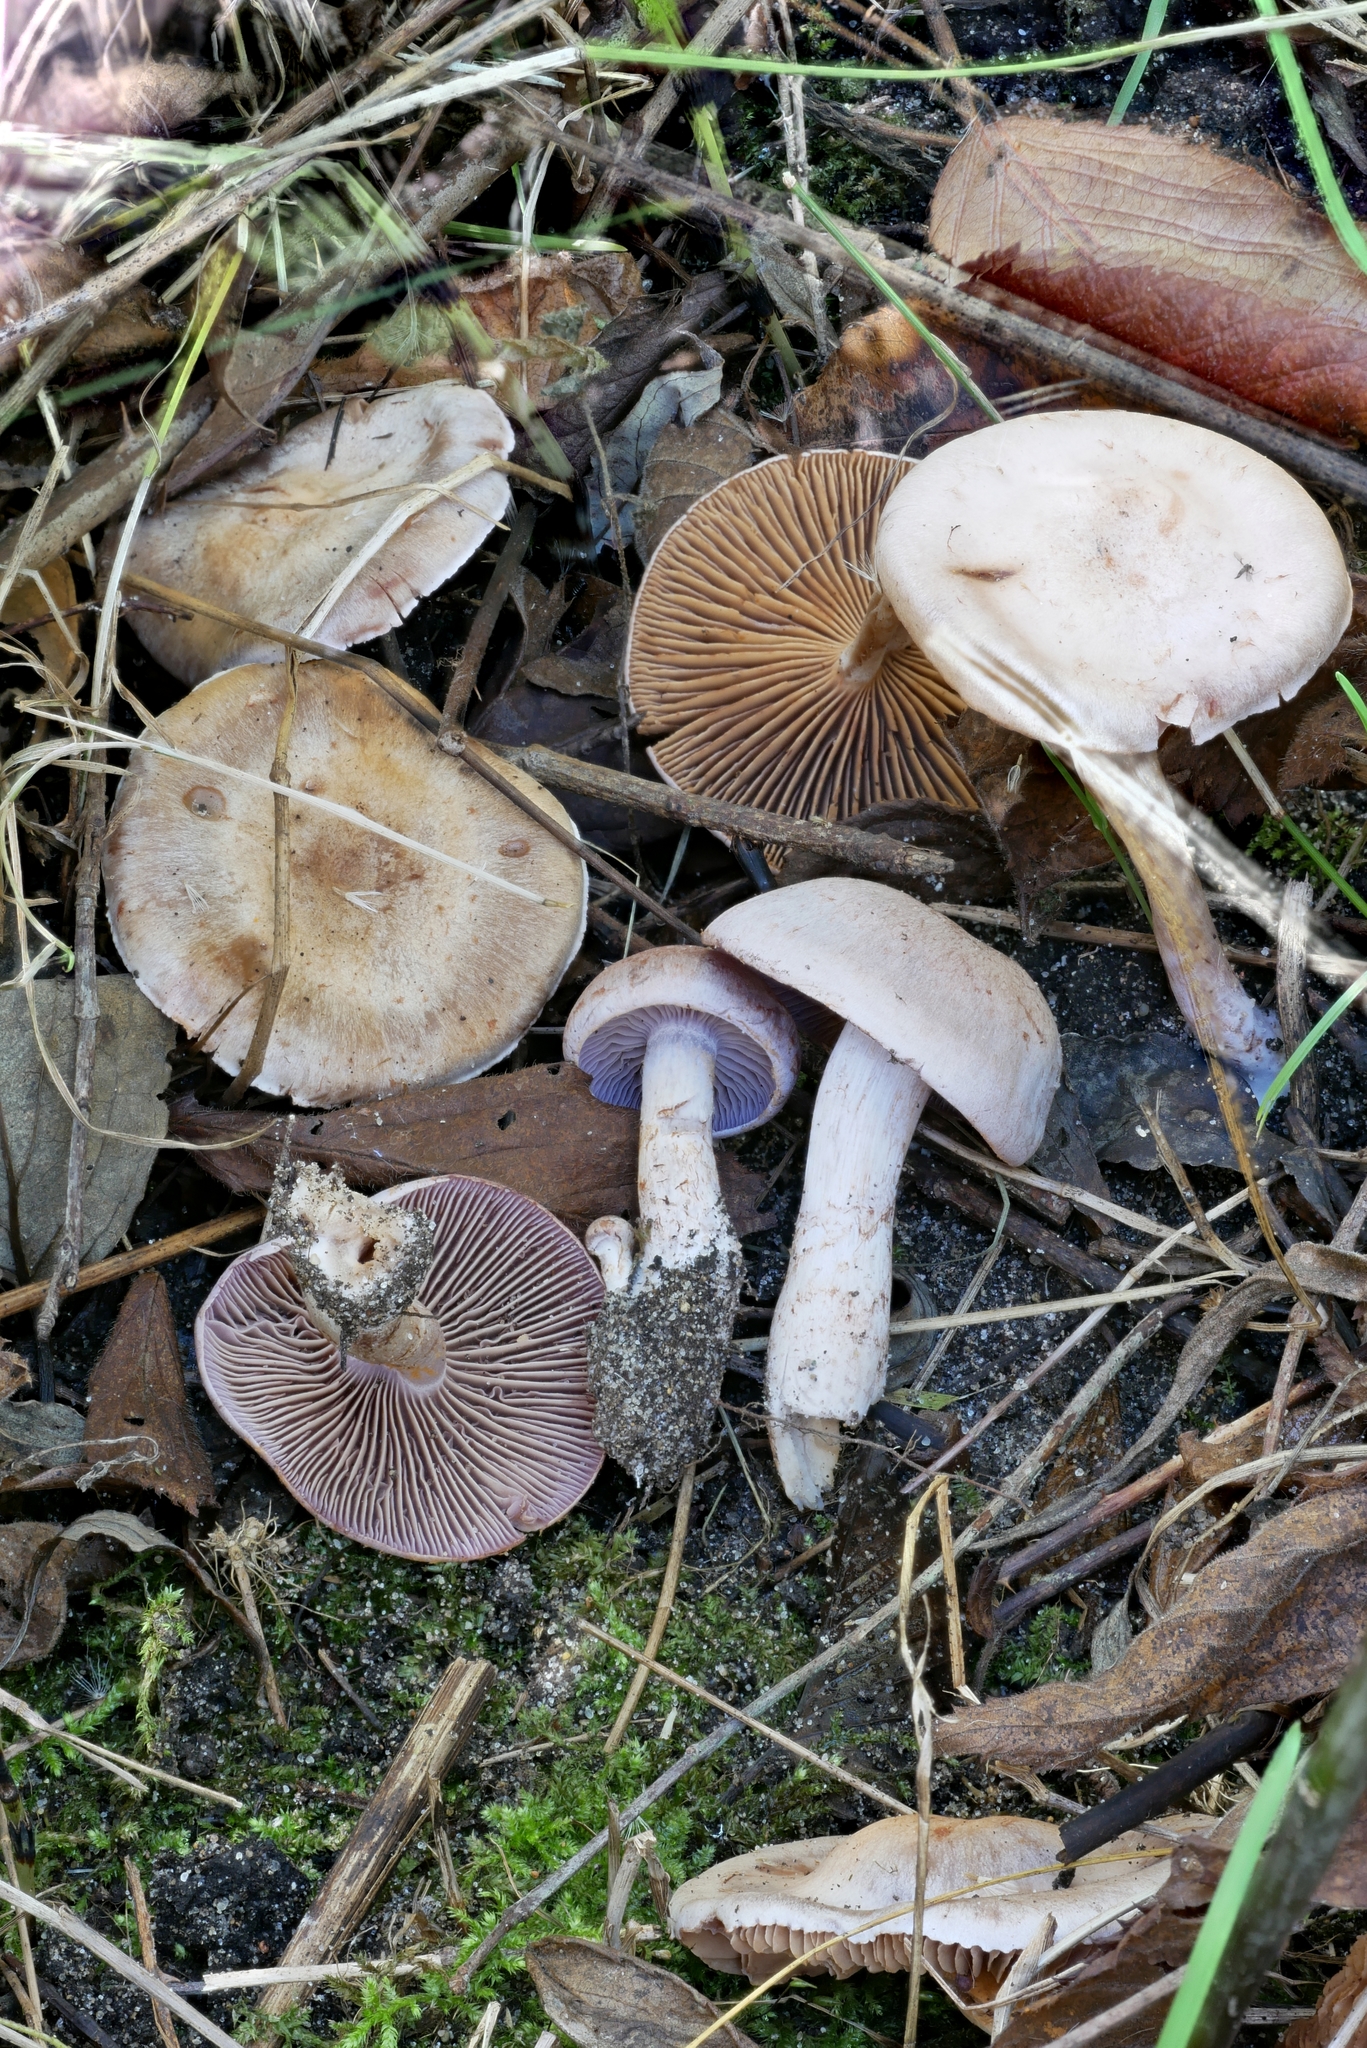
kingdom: Fungi
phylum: Basidiomycota
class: Agaricomycetes
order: Agaricales
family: Cortinariaceae
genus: Cortinarius
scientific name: Cortinarius spilomeus
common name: Freckled webcap
